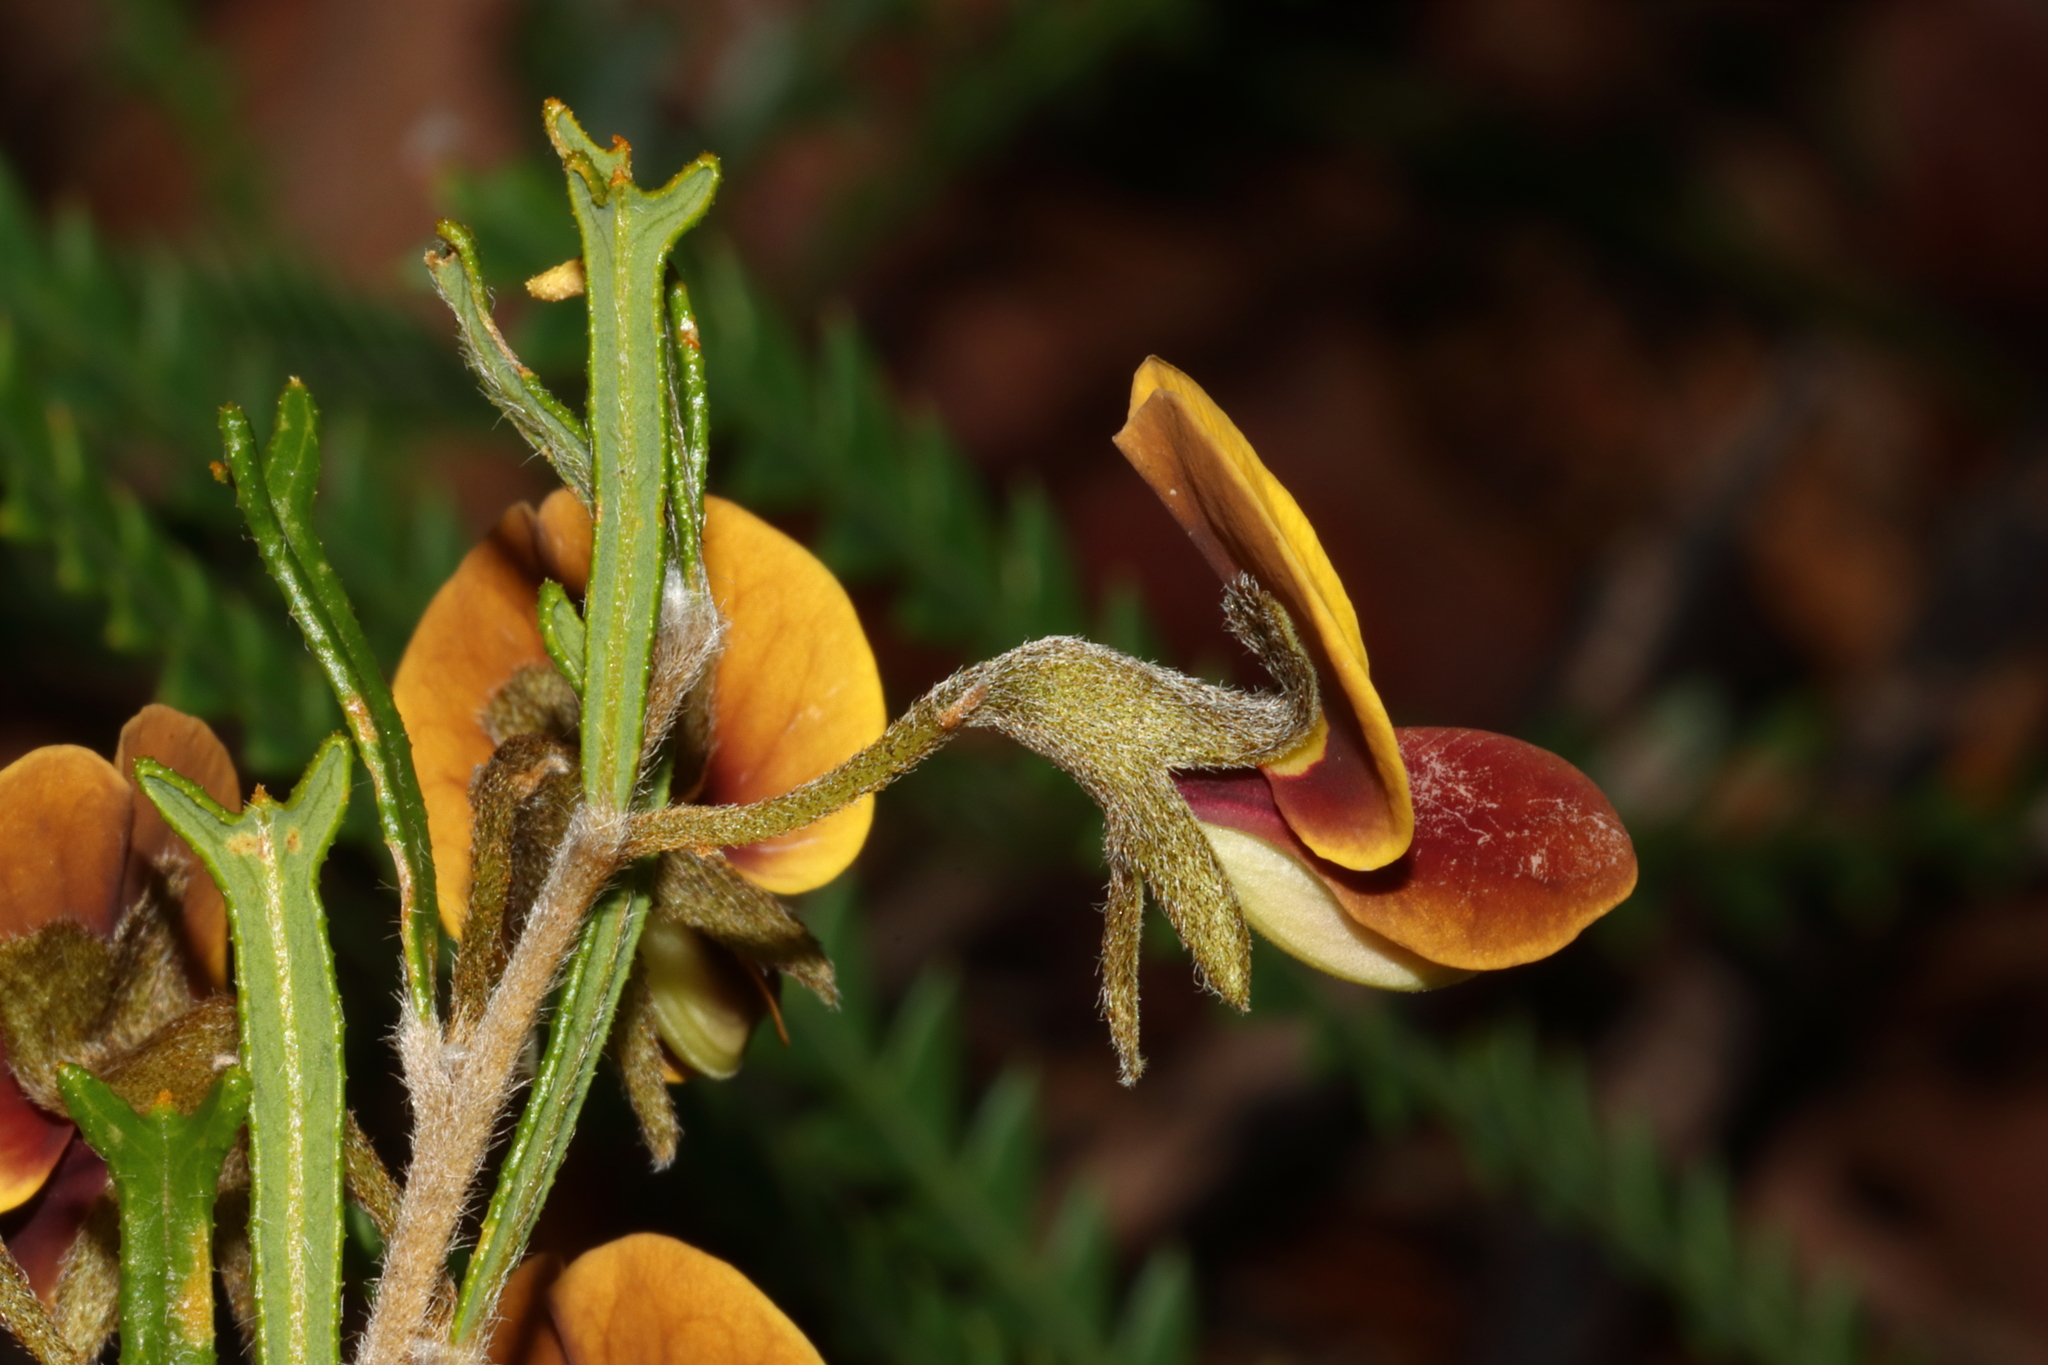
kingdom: Plantae
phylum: Tracheophyta
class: Magnoliopsida
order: Fabales
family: Fabaceae
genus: Cristonia
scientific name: Cristonia biloba
